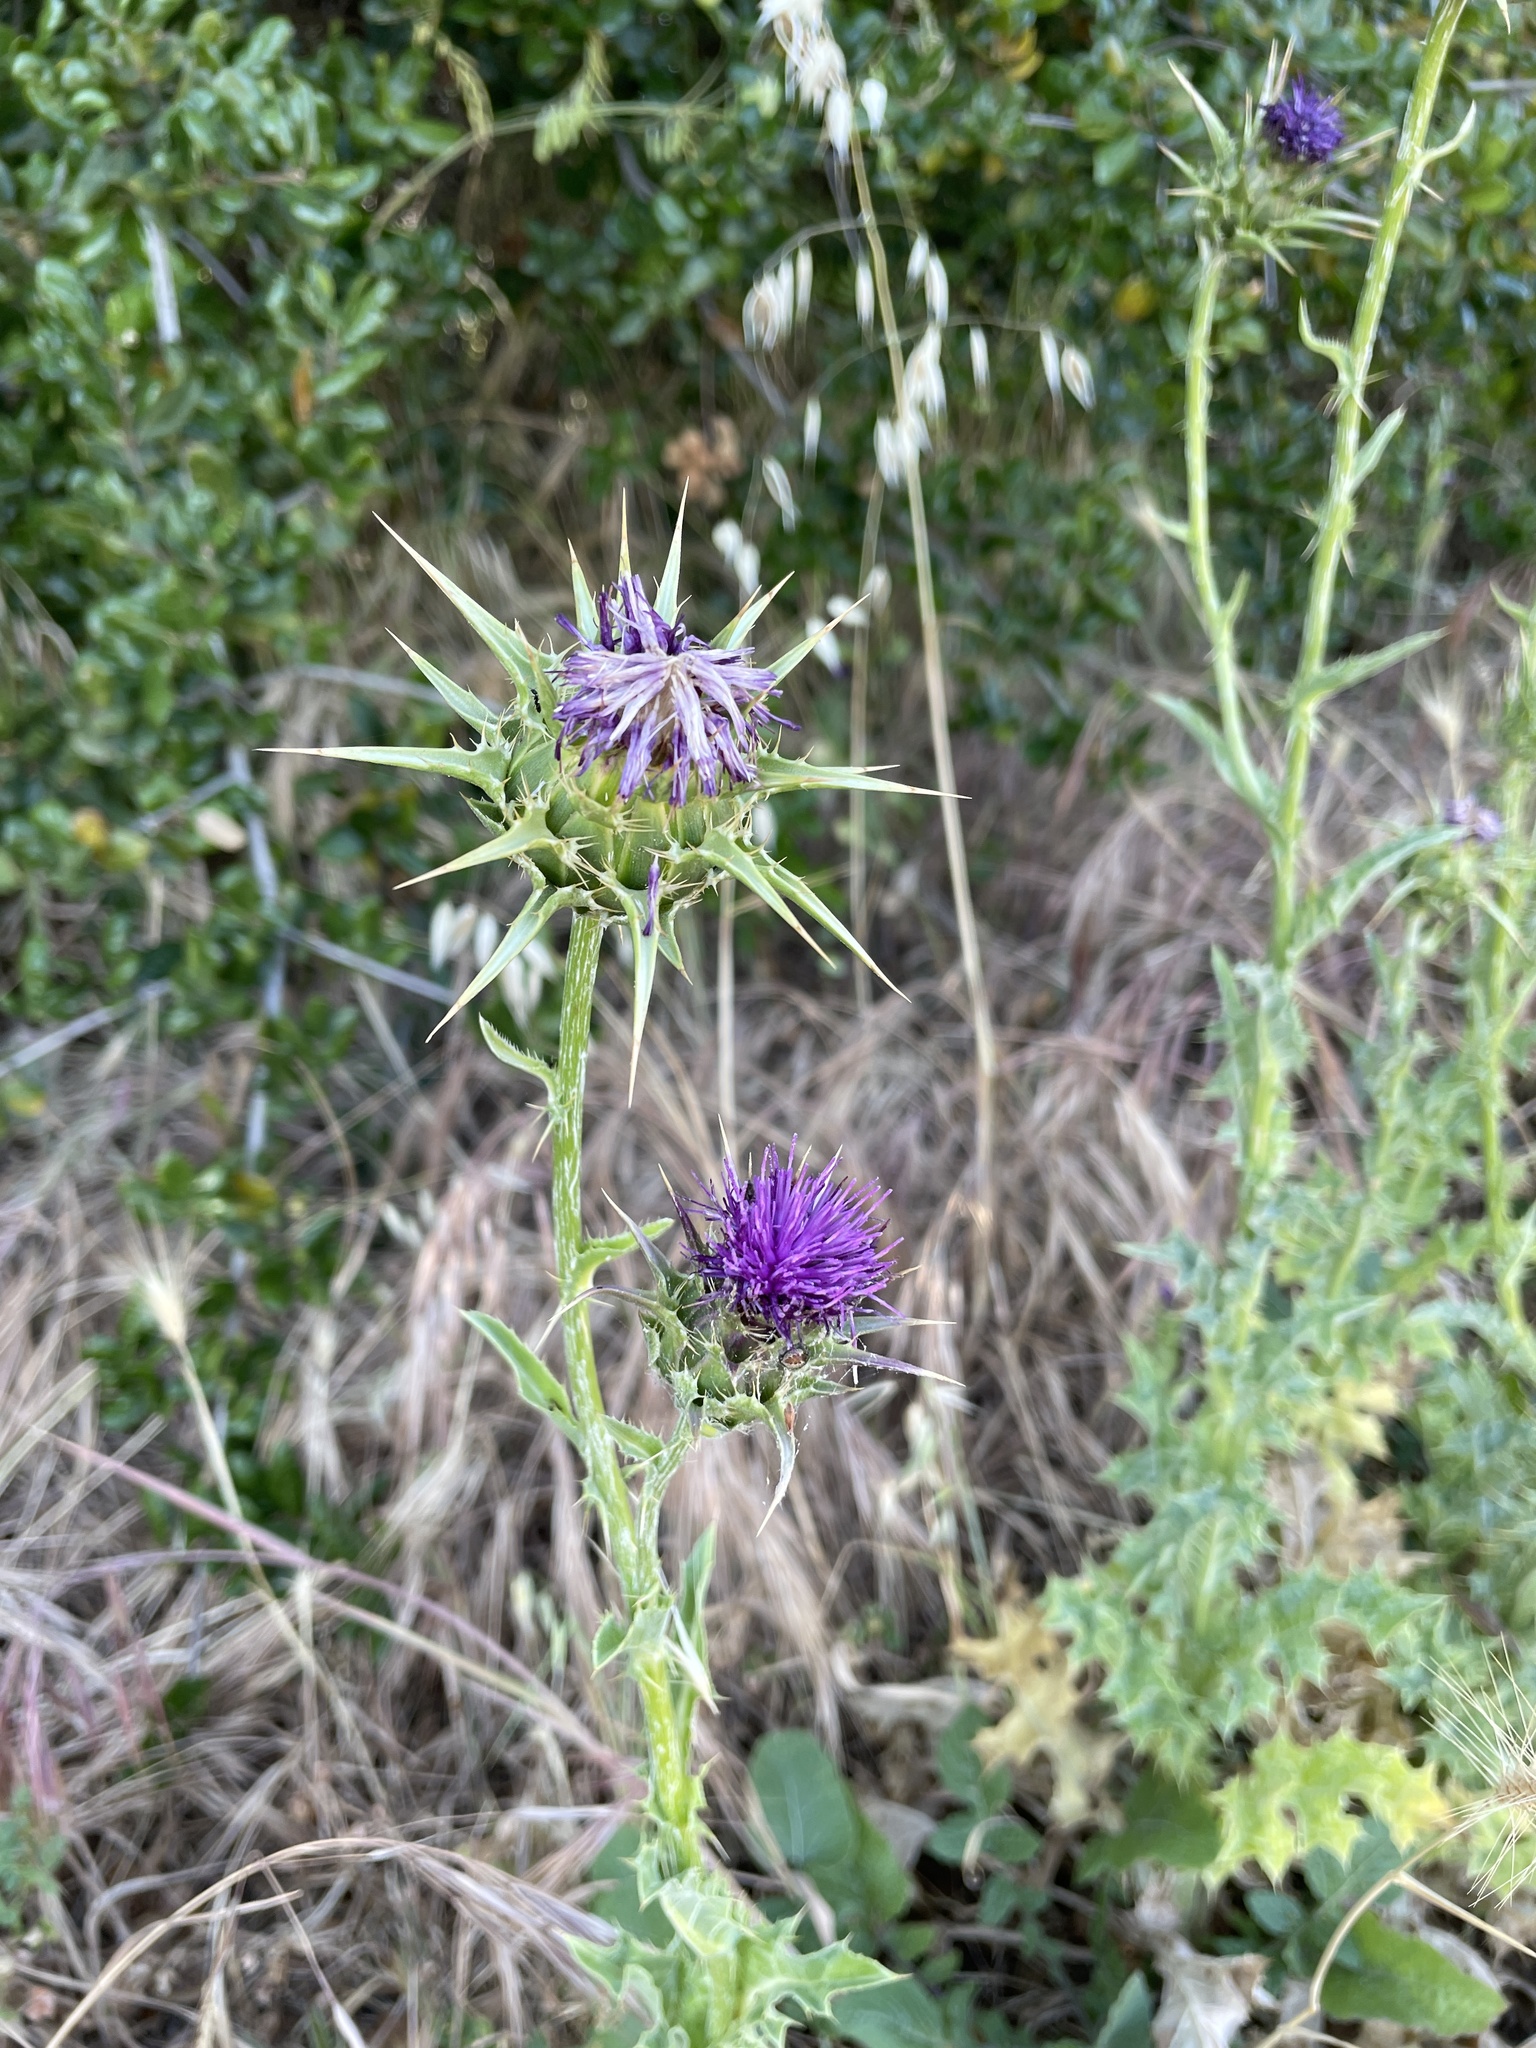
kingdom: Plantae
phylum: Tracheophyta
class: Magnoliopsida
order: Asterales
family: Asteraceae
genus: Silybum
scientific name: Silybum marianum
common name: Milk thistle
